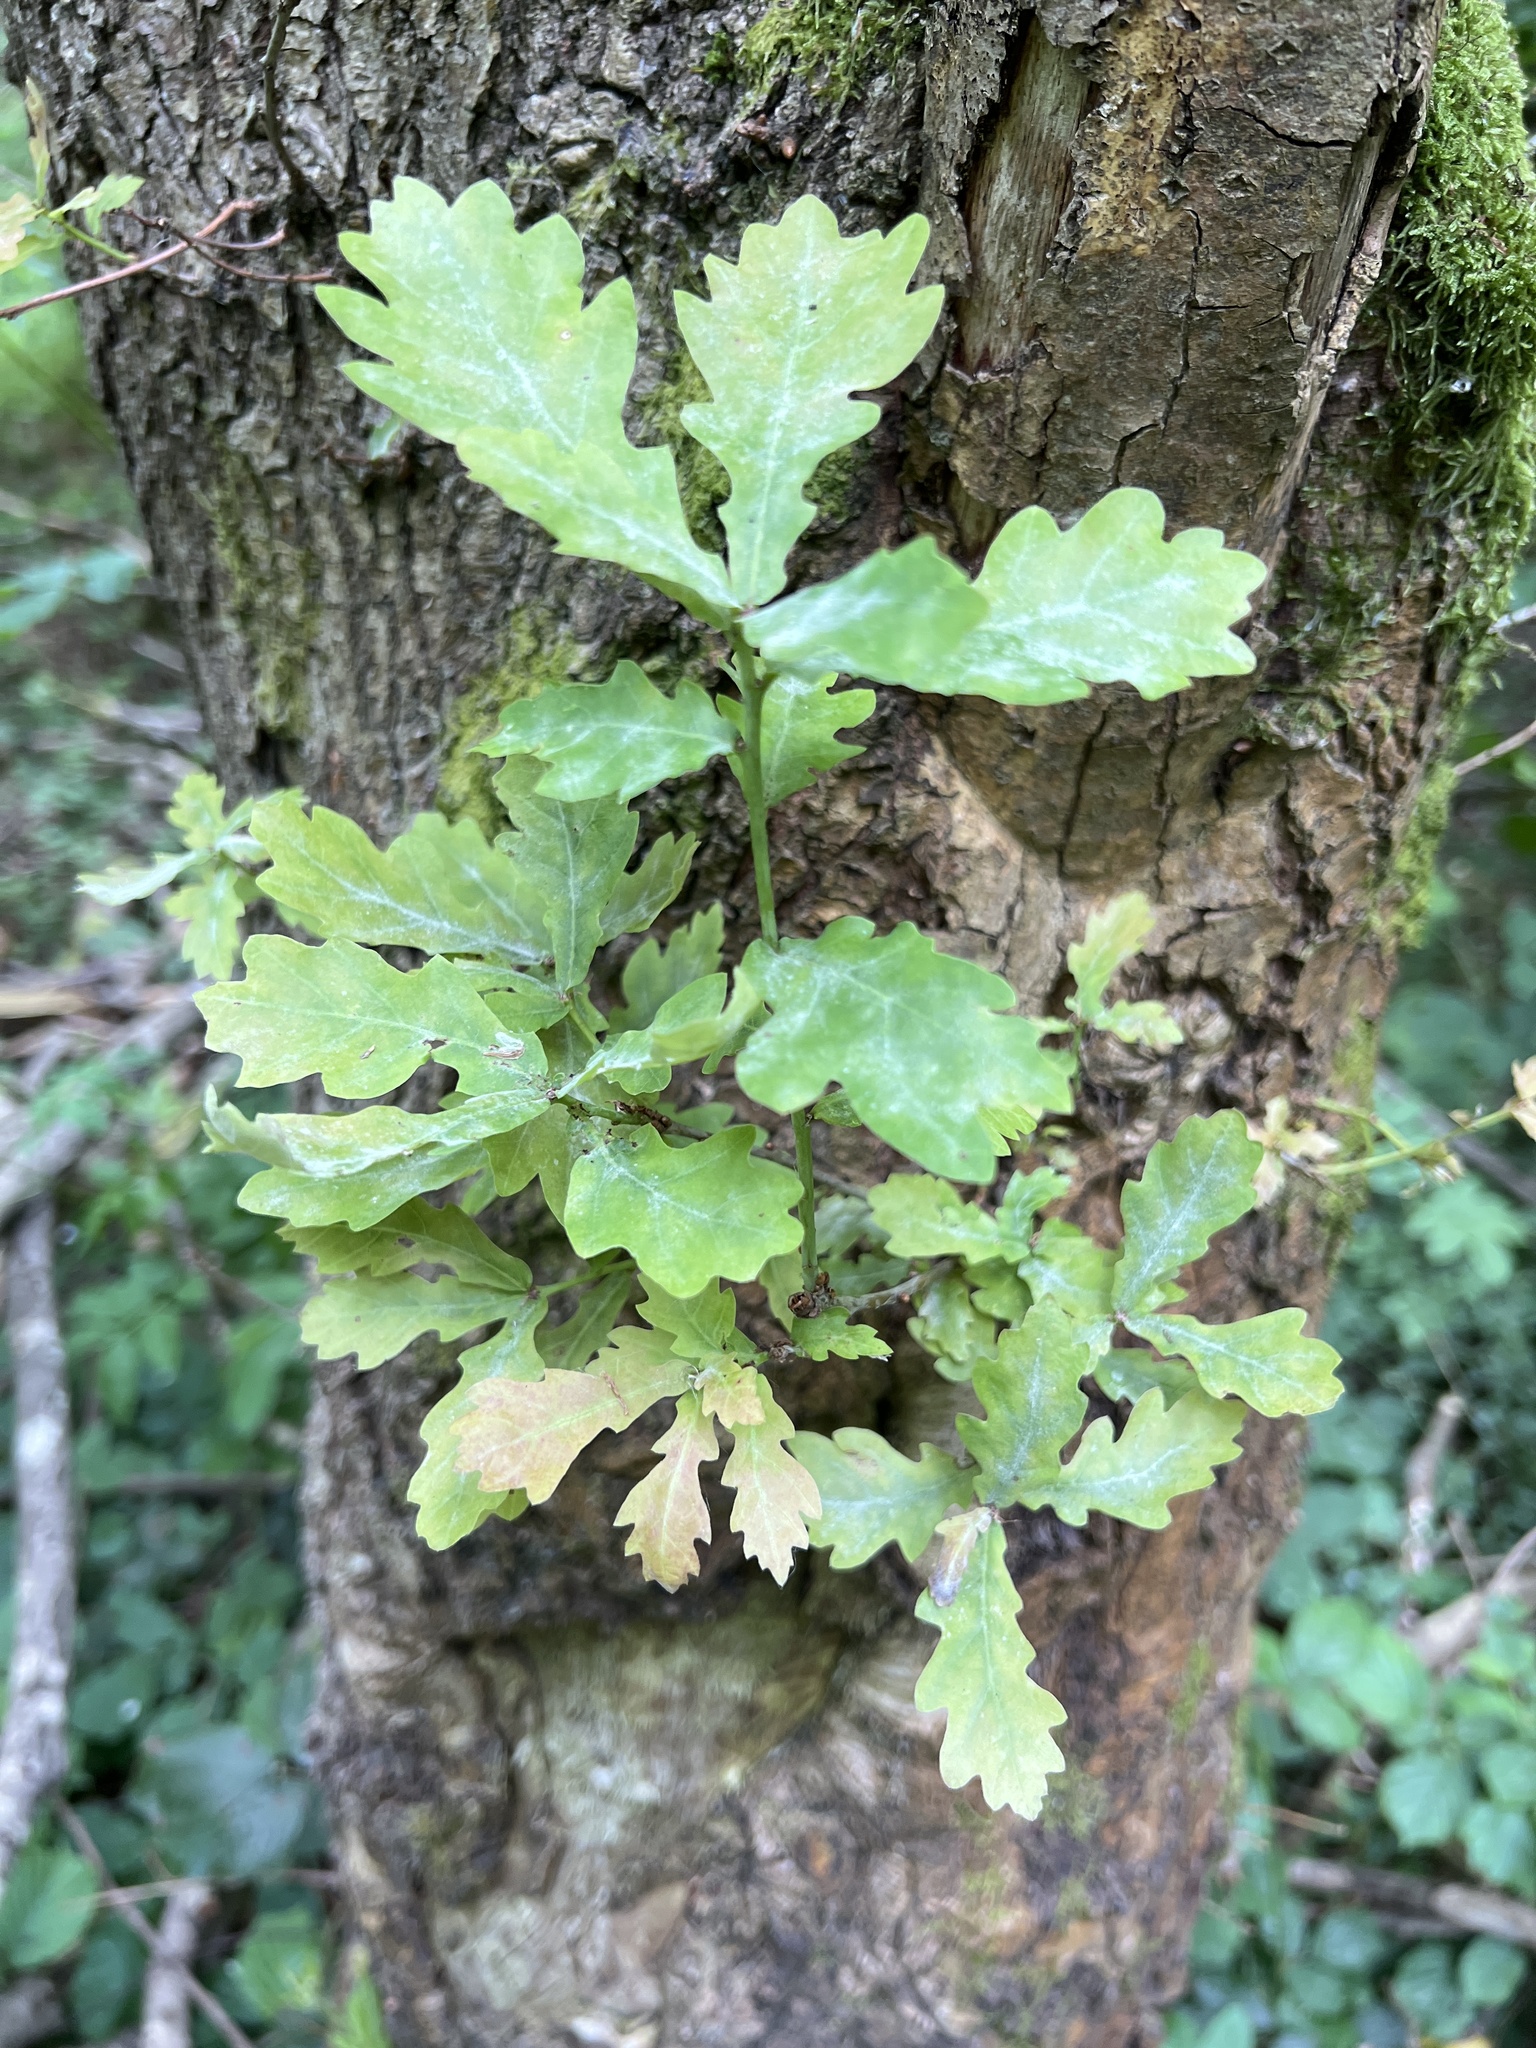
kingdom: Plantae
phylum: Tracheophyta
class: Magnoliopsida
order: Fagales
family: Fagaceae
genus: Quercus
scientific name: Quercus robur
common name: Pedunculate oak
